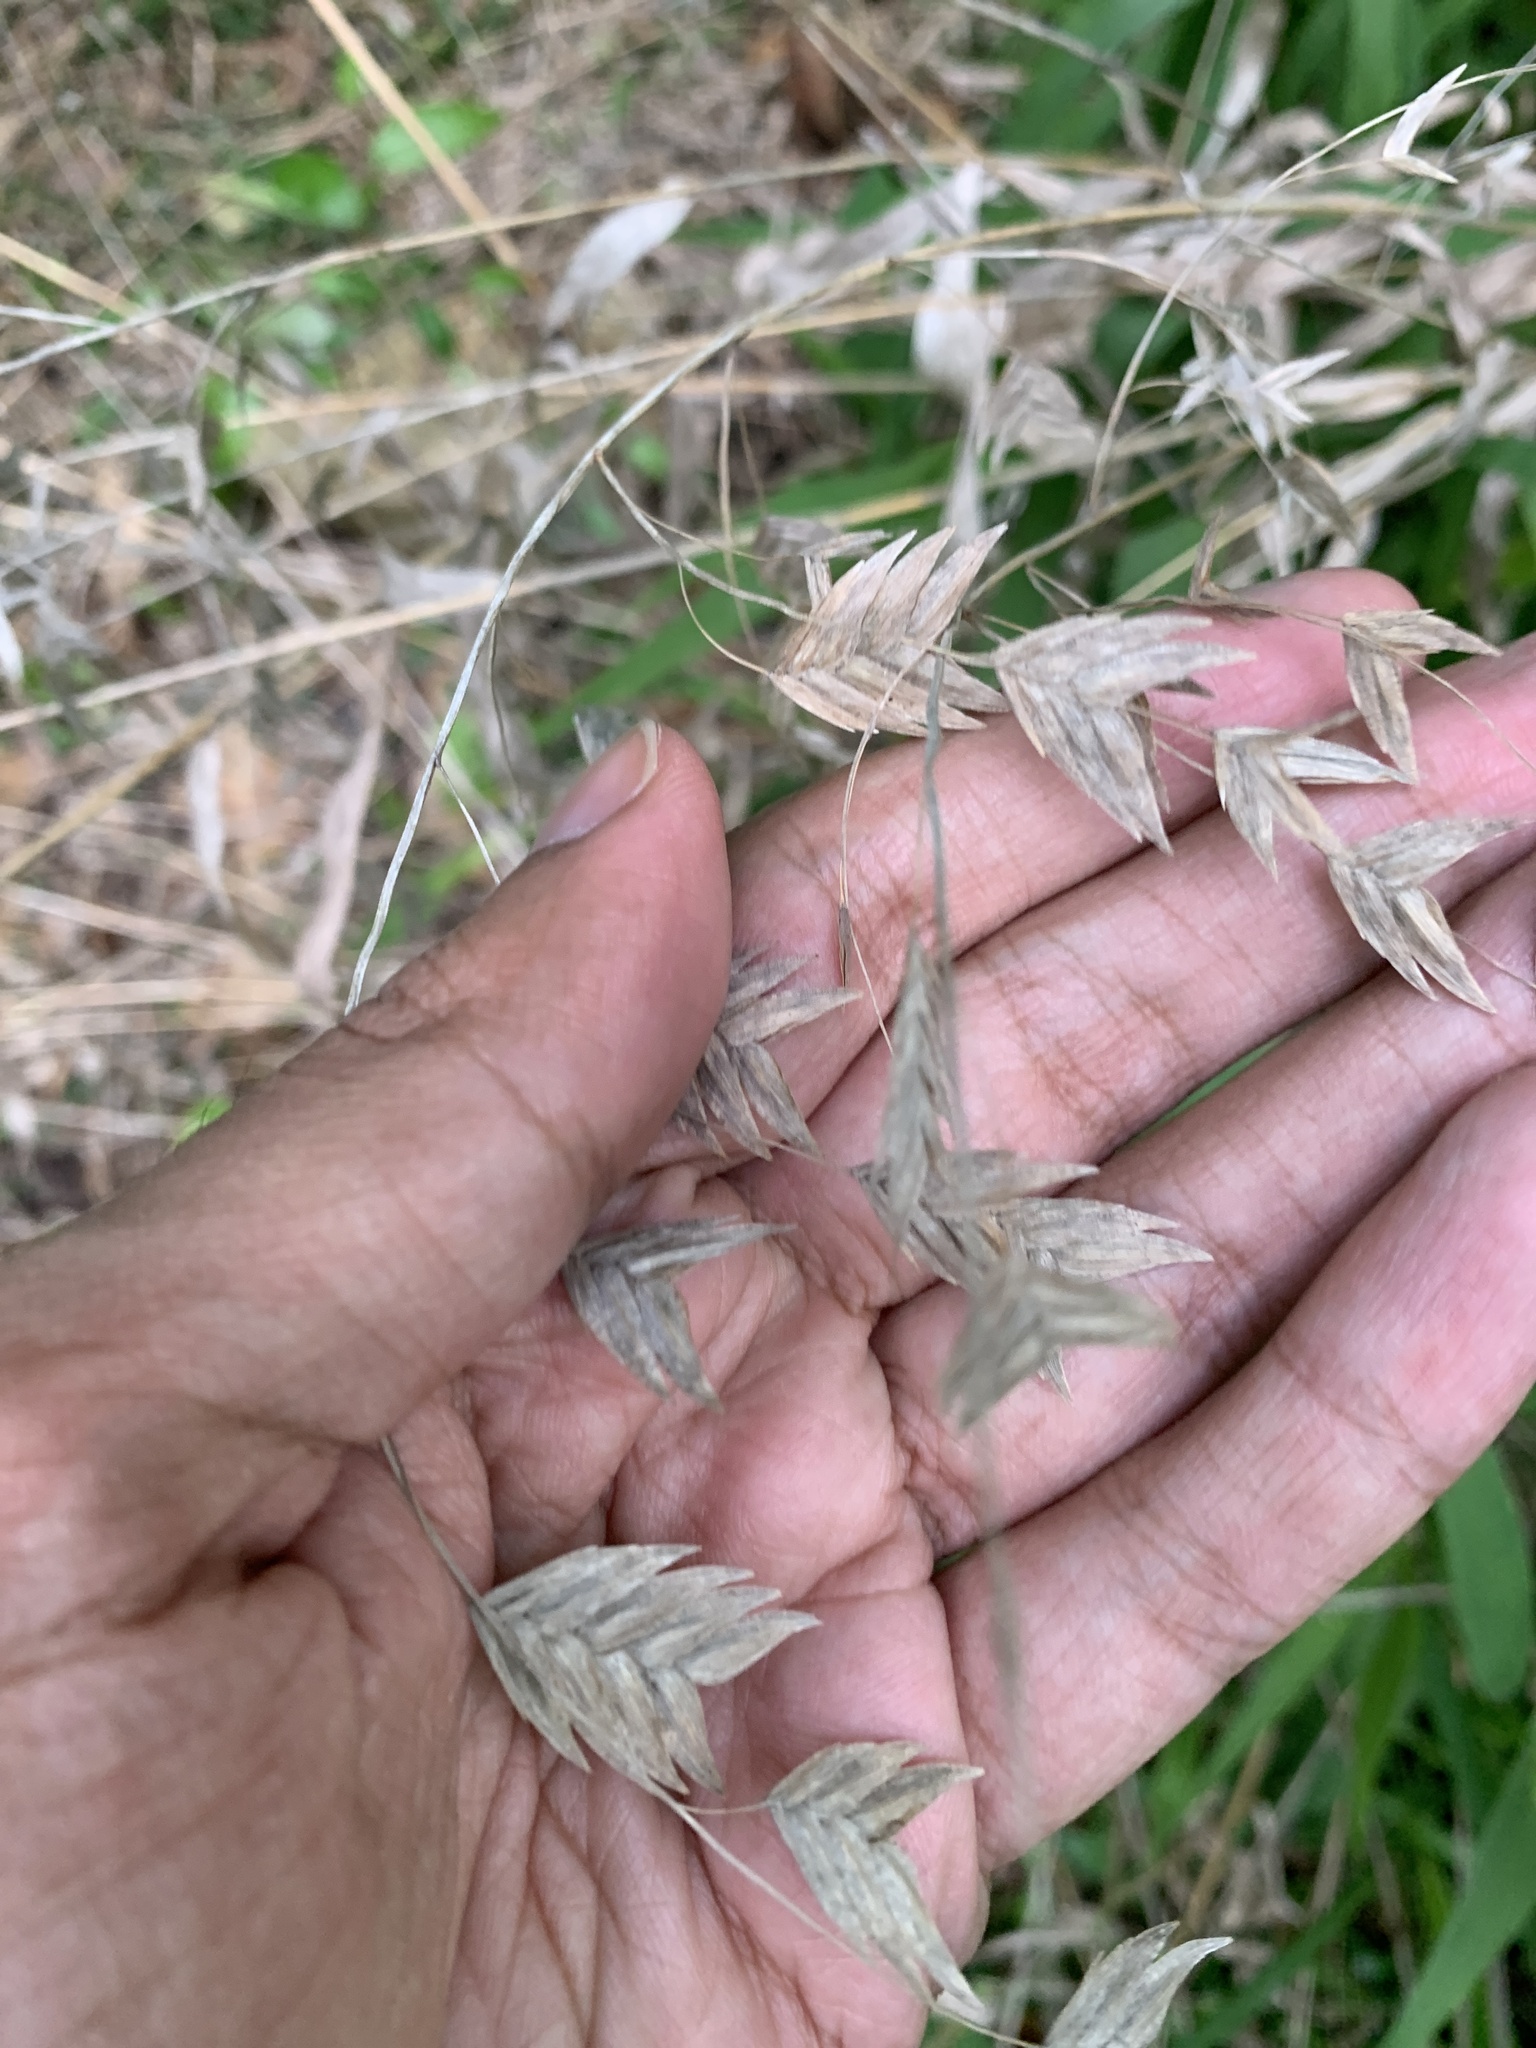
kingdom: Plantae
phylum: Tracheophyta
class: Liliopsida
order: Poales
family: Poaceae
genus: Chasmanthium
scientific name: Chasmanthium latifolium
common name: Broad-leaved chasmanthium
